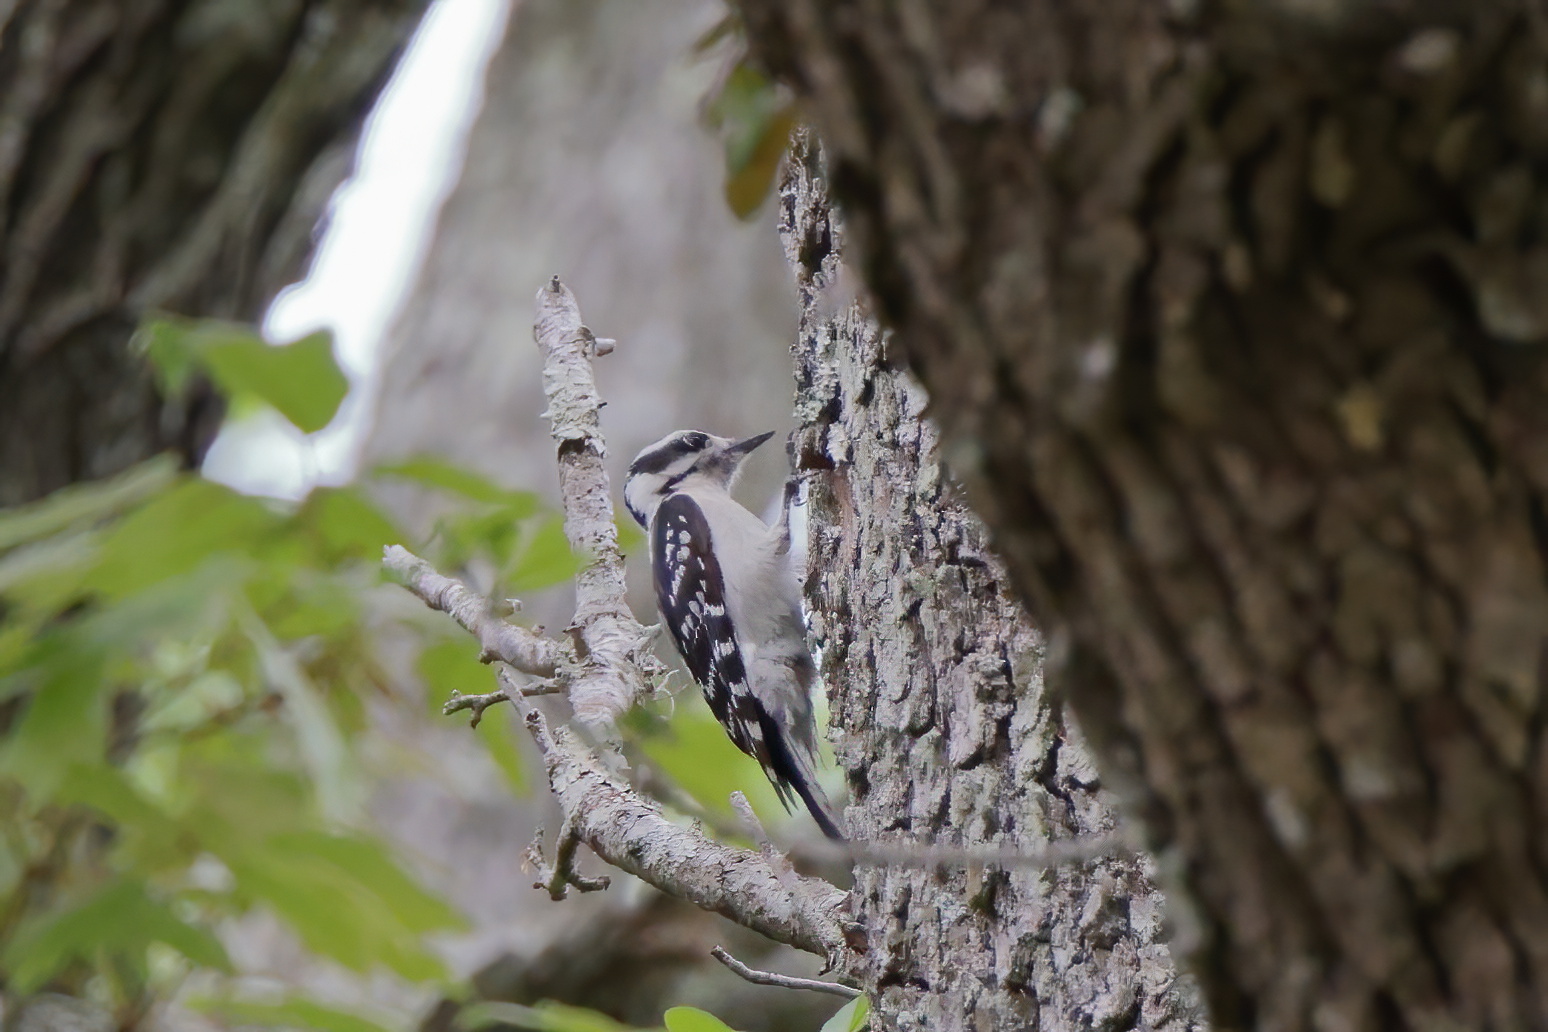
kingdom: Animalia
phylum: Chordata
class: Aves
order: Piciformes
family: Picidae
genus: Dryobates
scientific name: Dryobates pubescens
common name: Downy woodpecker
